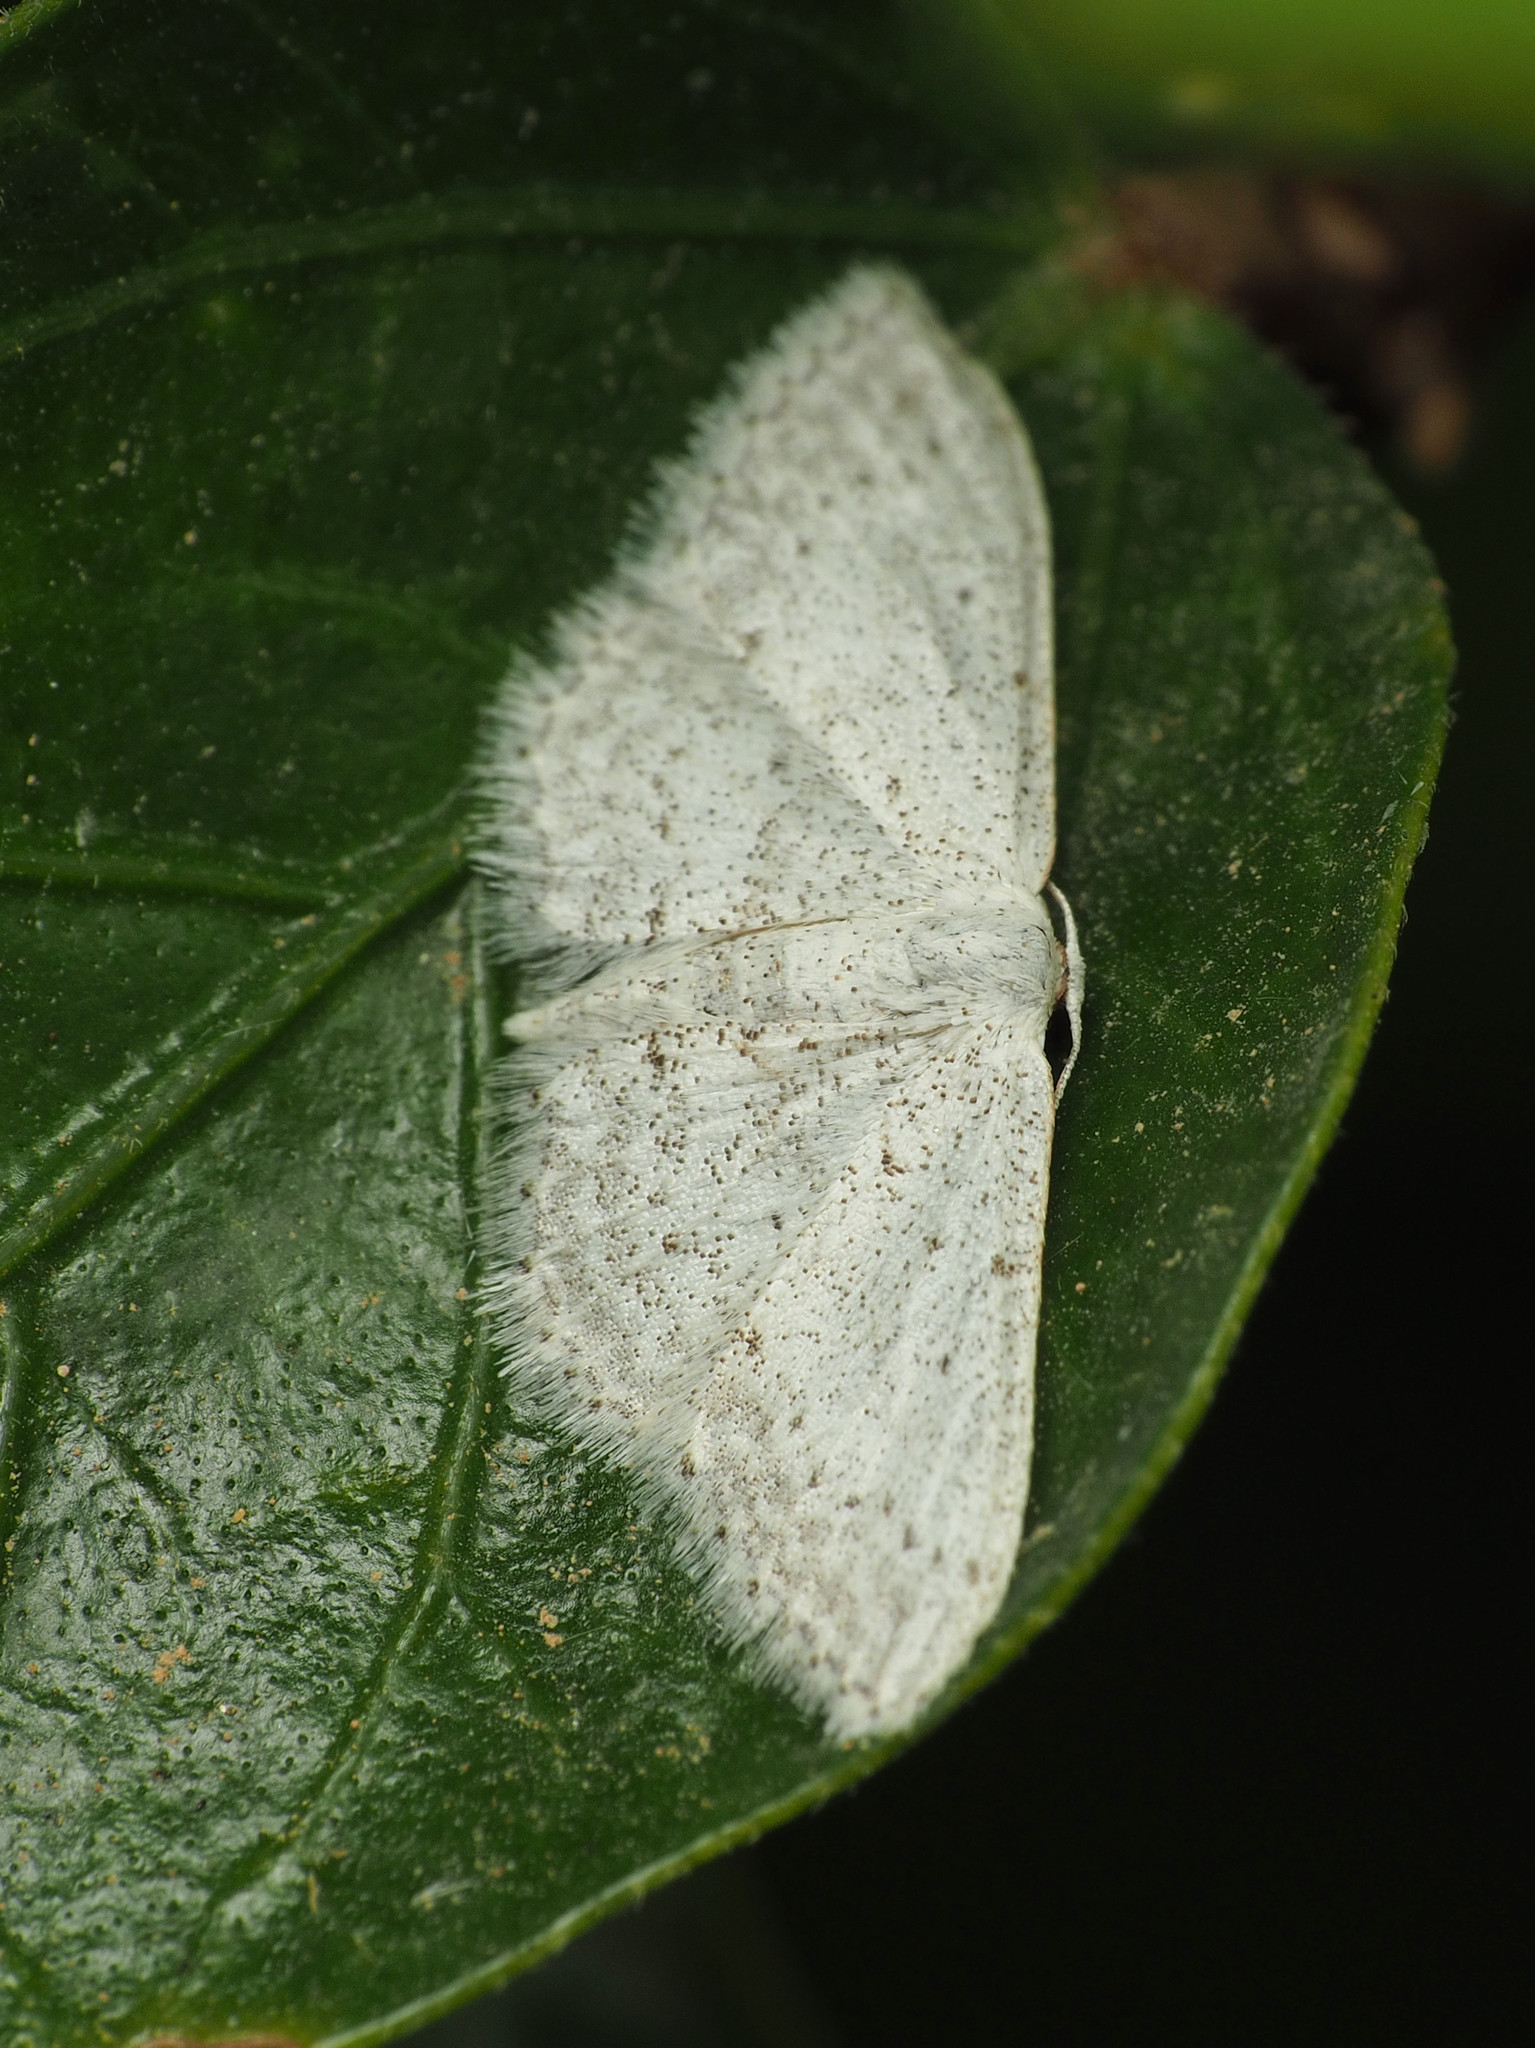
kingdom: Animalia
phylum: Arthropoda
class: Insecta
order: Lepidoptera
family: Geometridae
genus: Idaea
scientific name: Idaea seriata
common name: Small dusty wave
